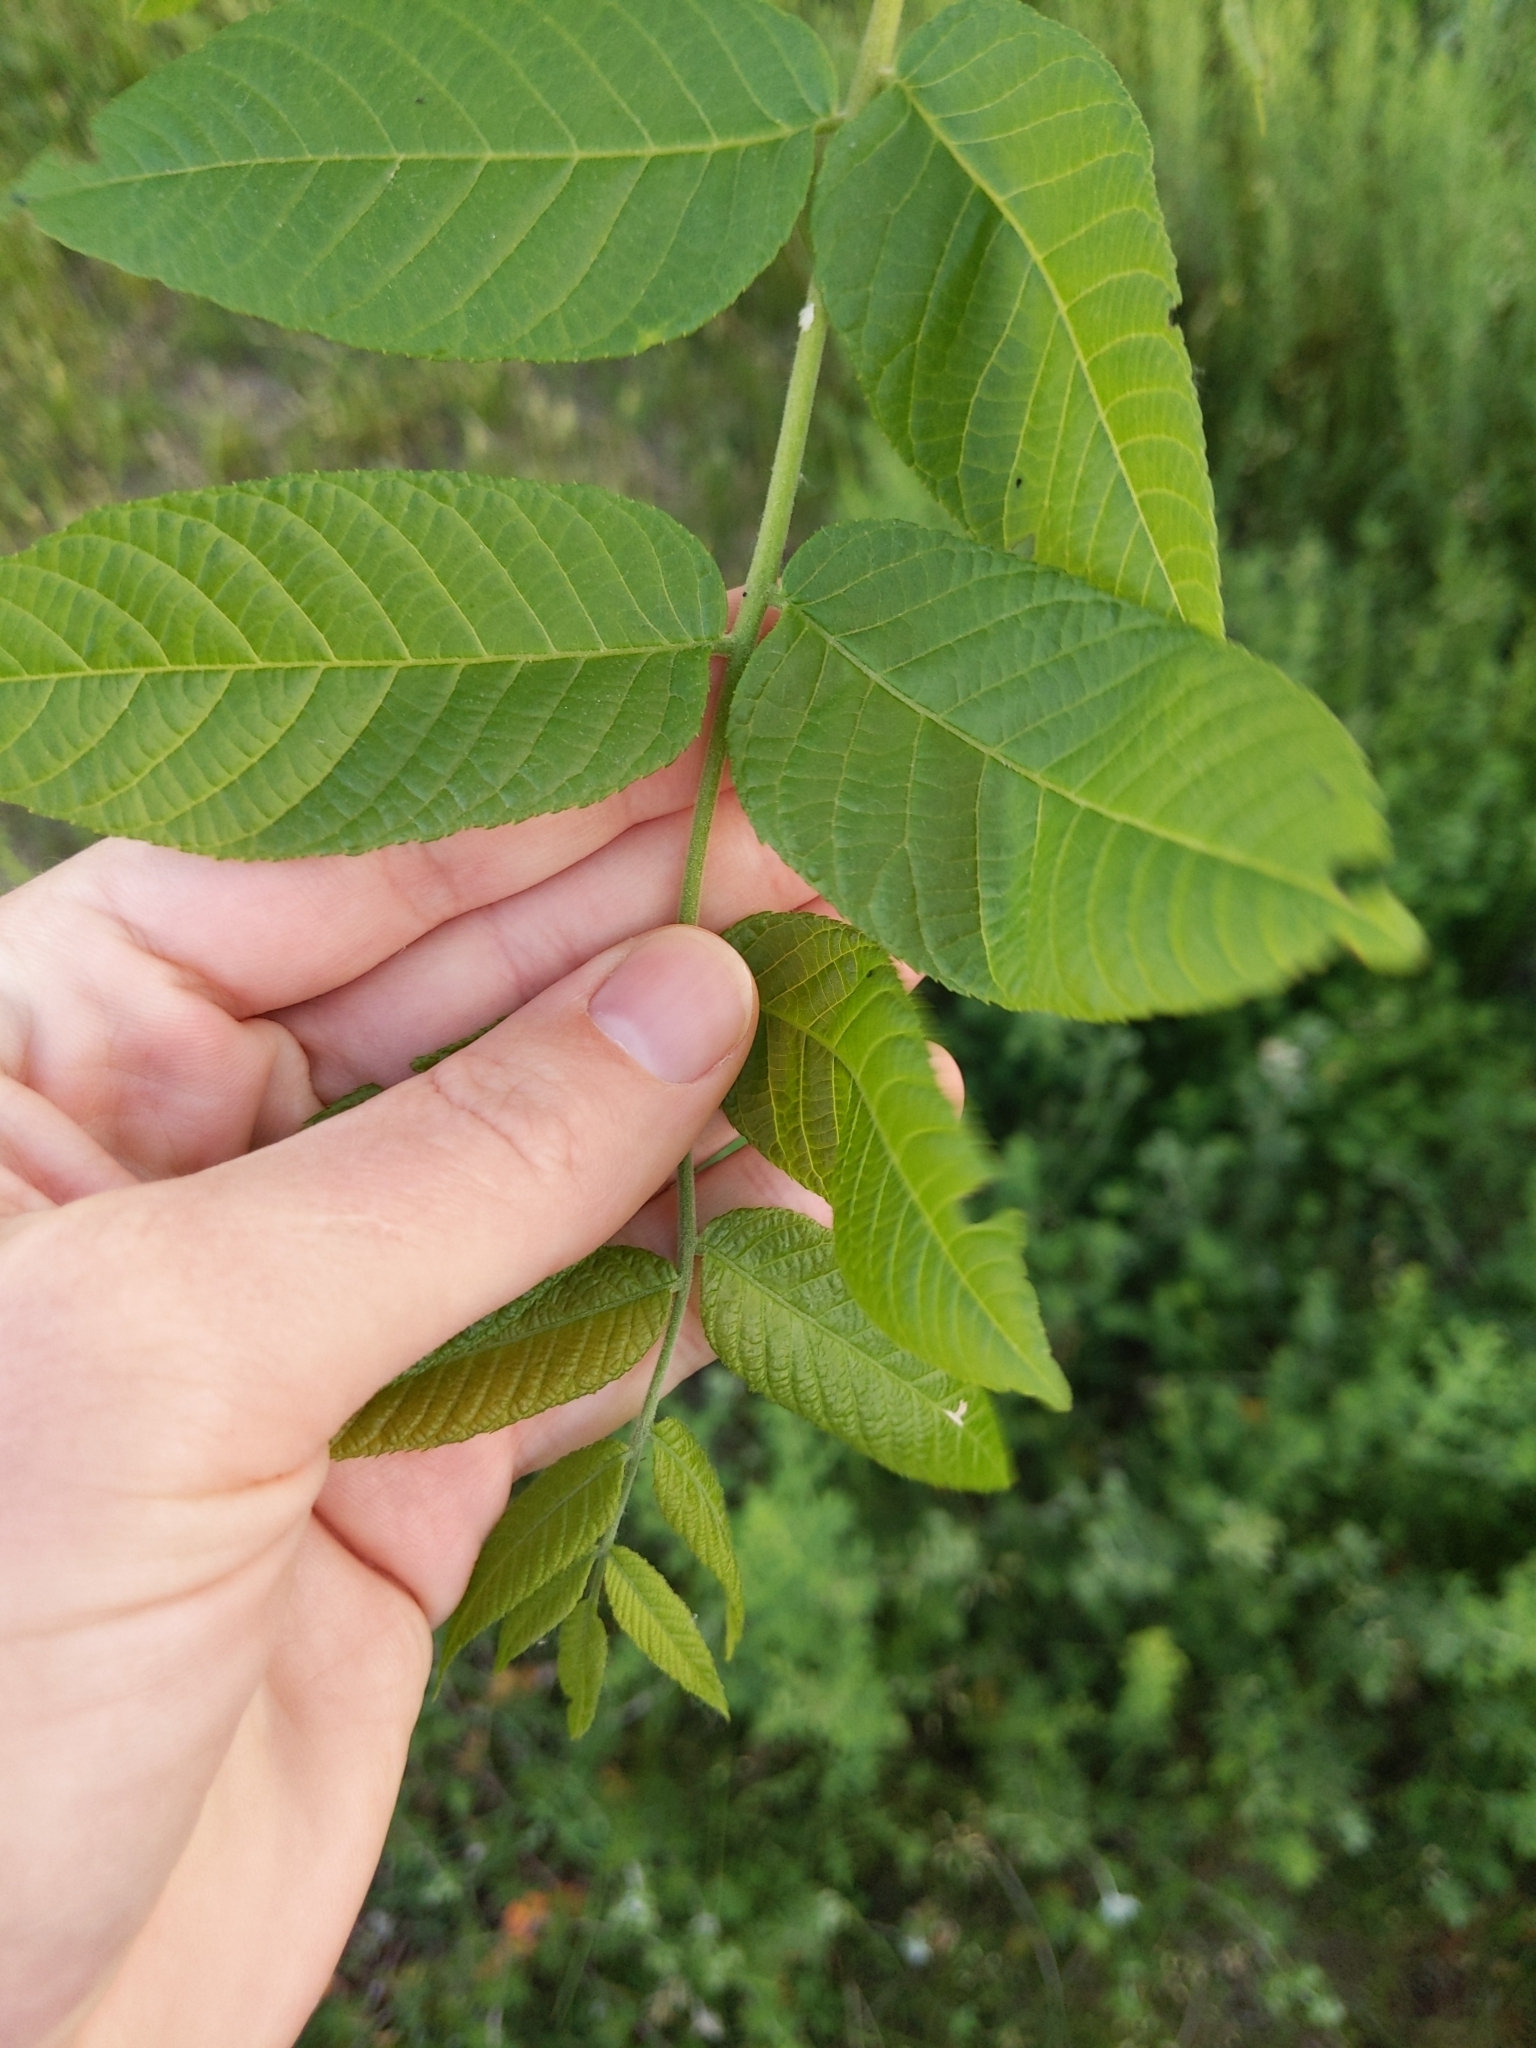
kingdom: Plantae
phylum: Tracheophyta
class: Magnoliopsida
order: Fagales
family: Juglandaceae
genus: Juglans
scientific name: Juglans nigra
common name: Black walnut
